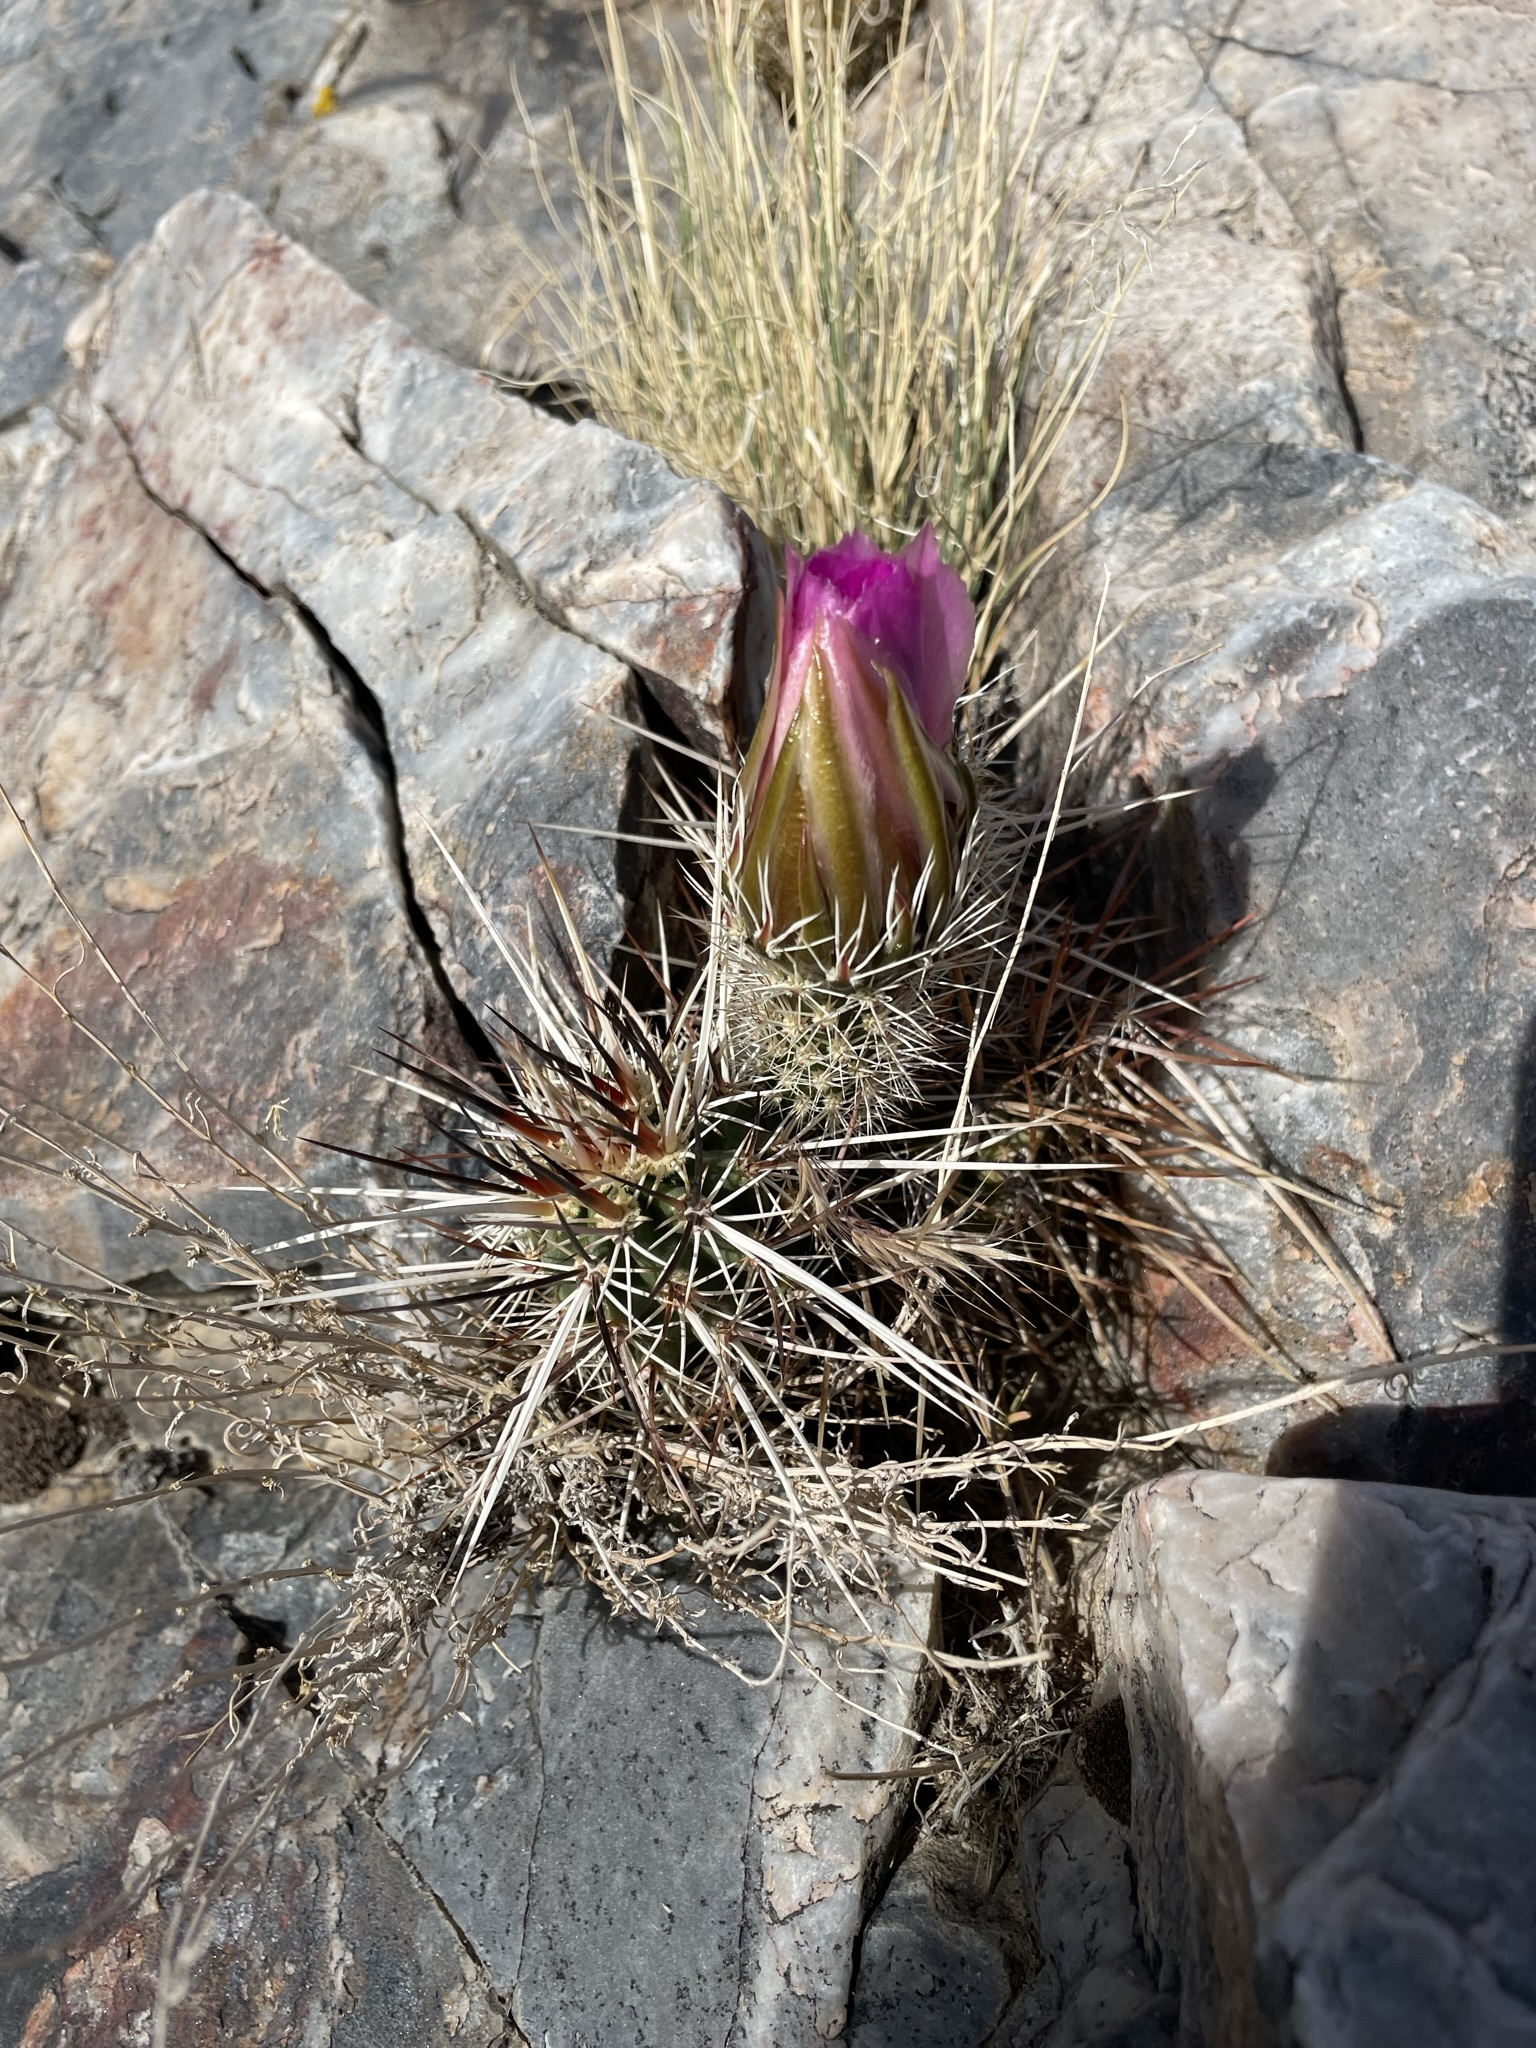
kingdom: Plantae
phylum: Tracheophyta
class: Magnoliopsida
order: Caryophyllales
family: Cactaceae
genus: Echinocereus
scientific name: Echinocereus engelmannii
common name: Engelmann's hedgehog cactus
